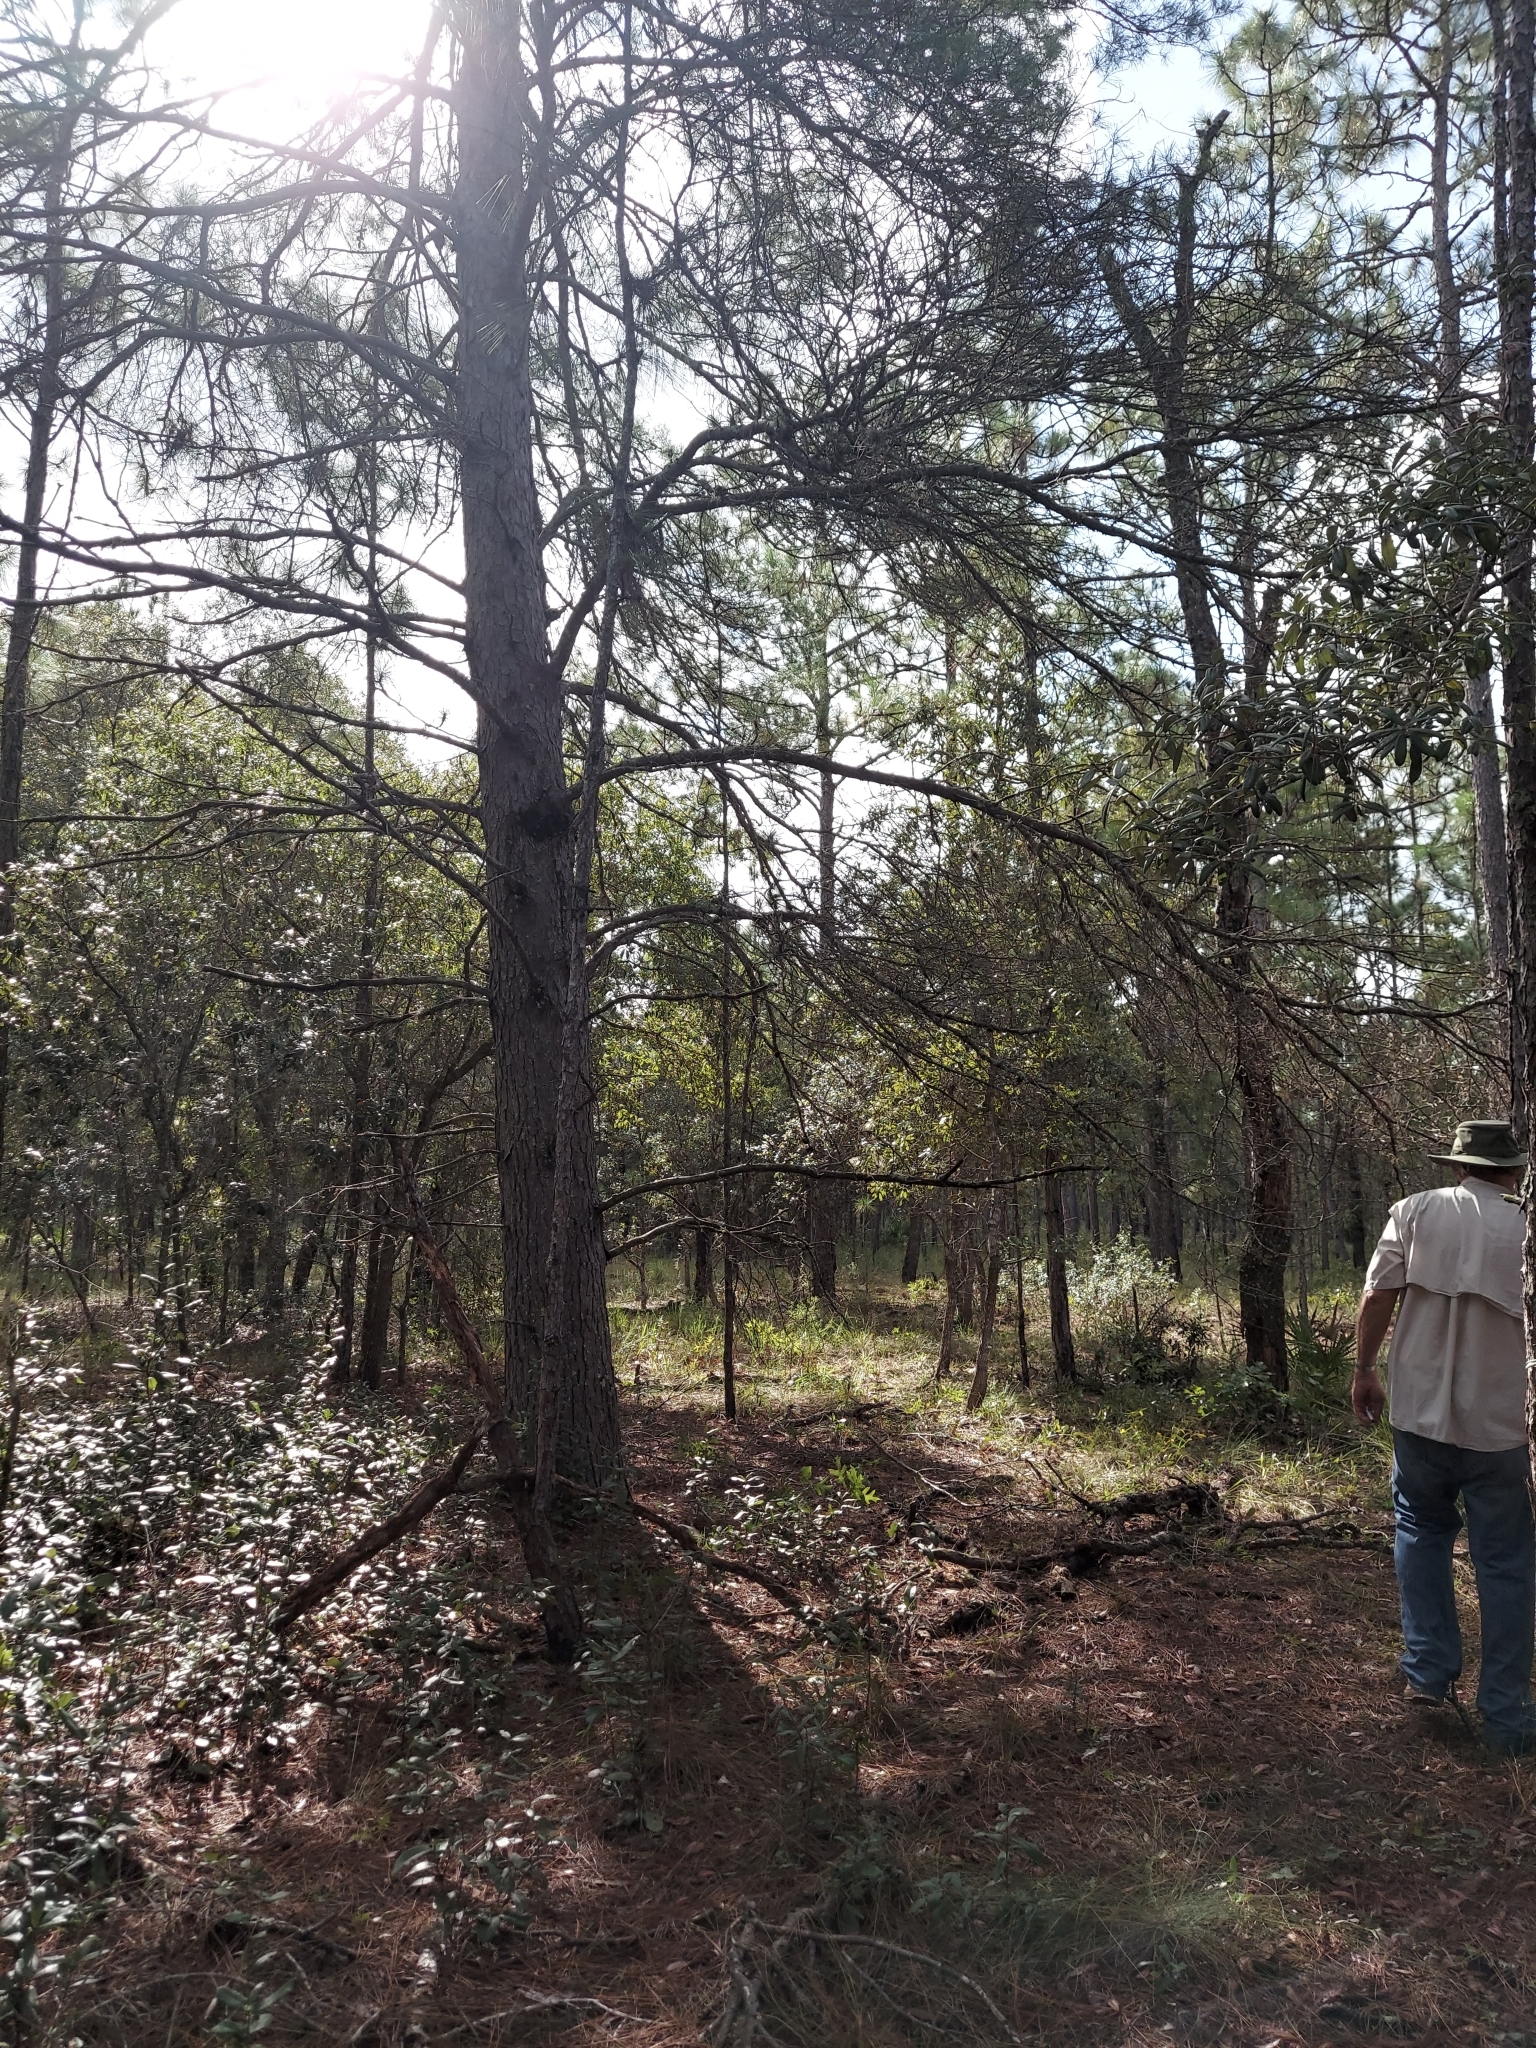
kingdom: Plantae
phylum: Tracheophyta
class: Pinopsida
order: Pinales
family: Pinaceae
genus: Pinus
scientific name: Pinus clausa
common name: Sand pine
